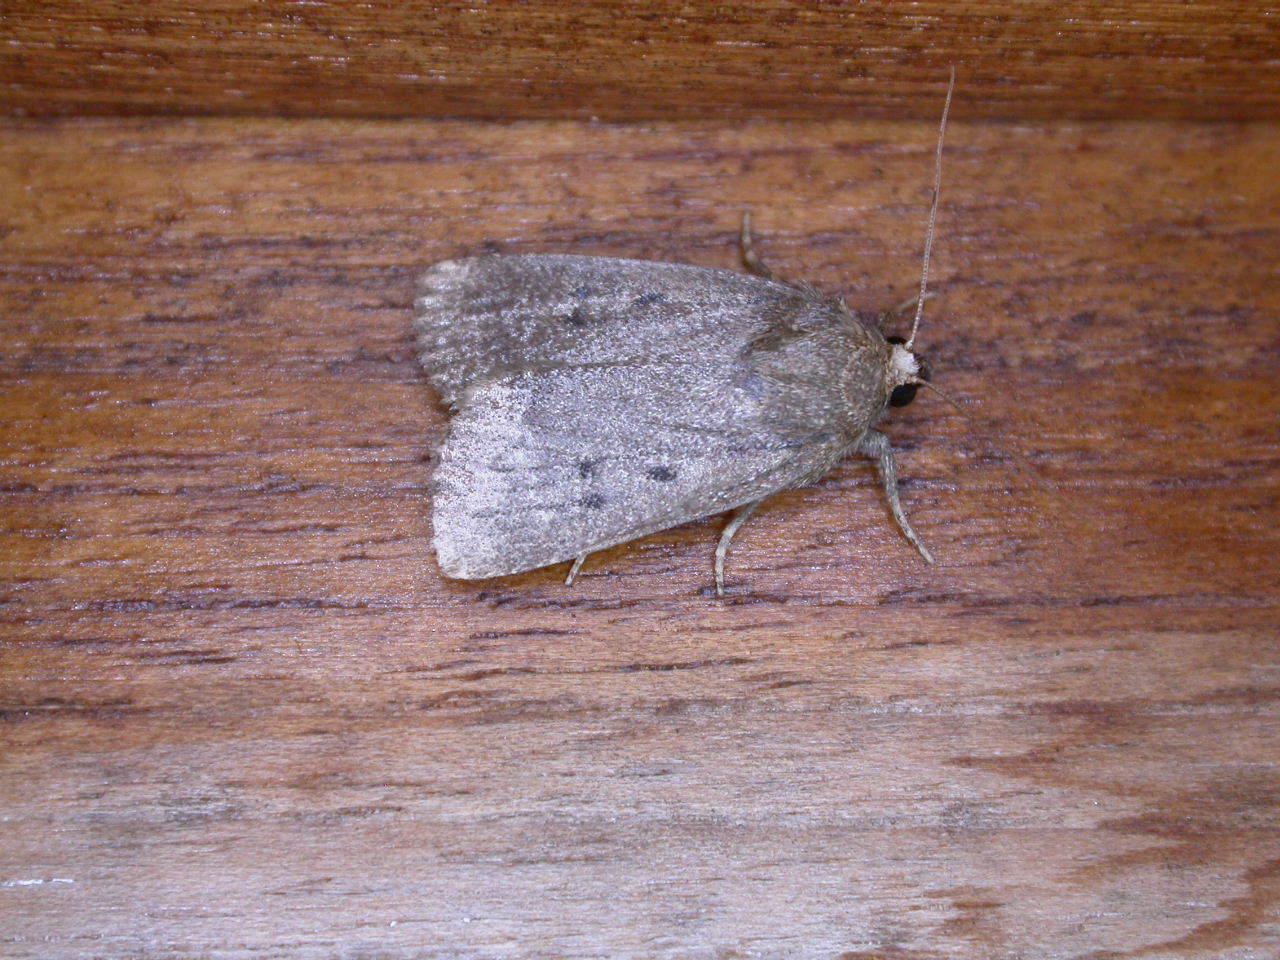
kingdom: Animalia
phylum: Arthropoda
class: Insecta
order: Lepidoptera
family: Noctuidae
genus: Amphipyra
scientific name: Amphipyra tragopoginis
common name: Mouse moth
